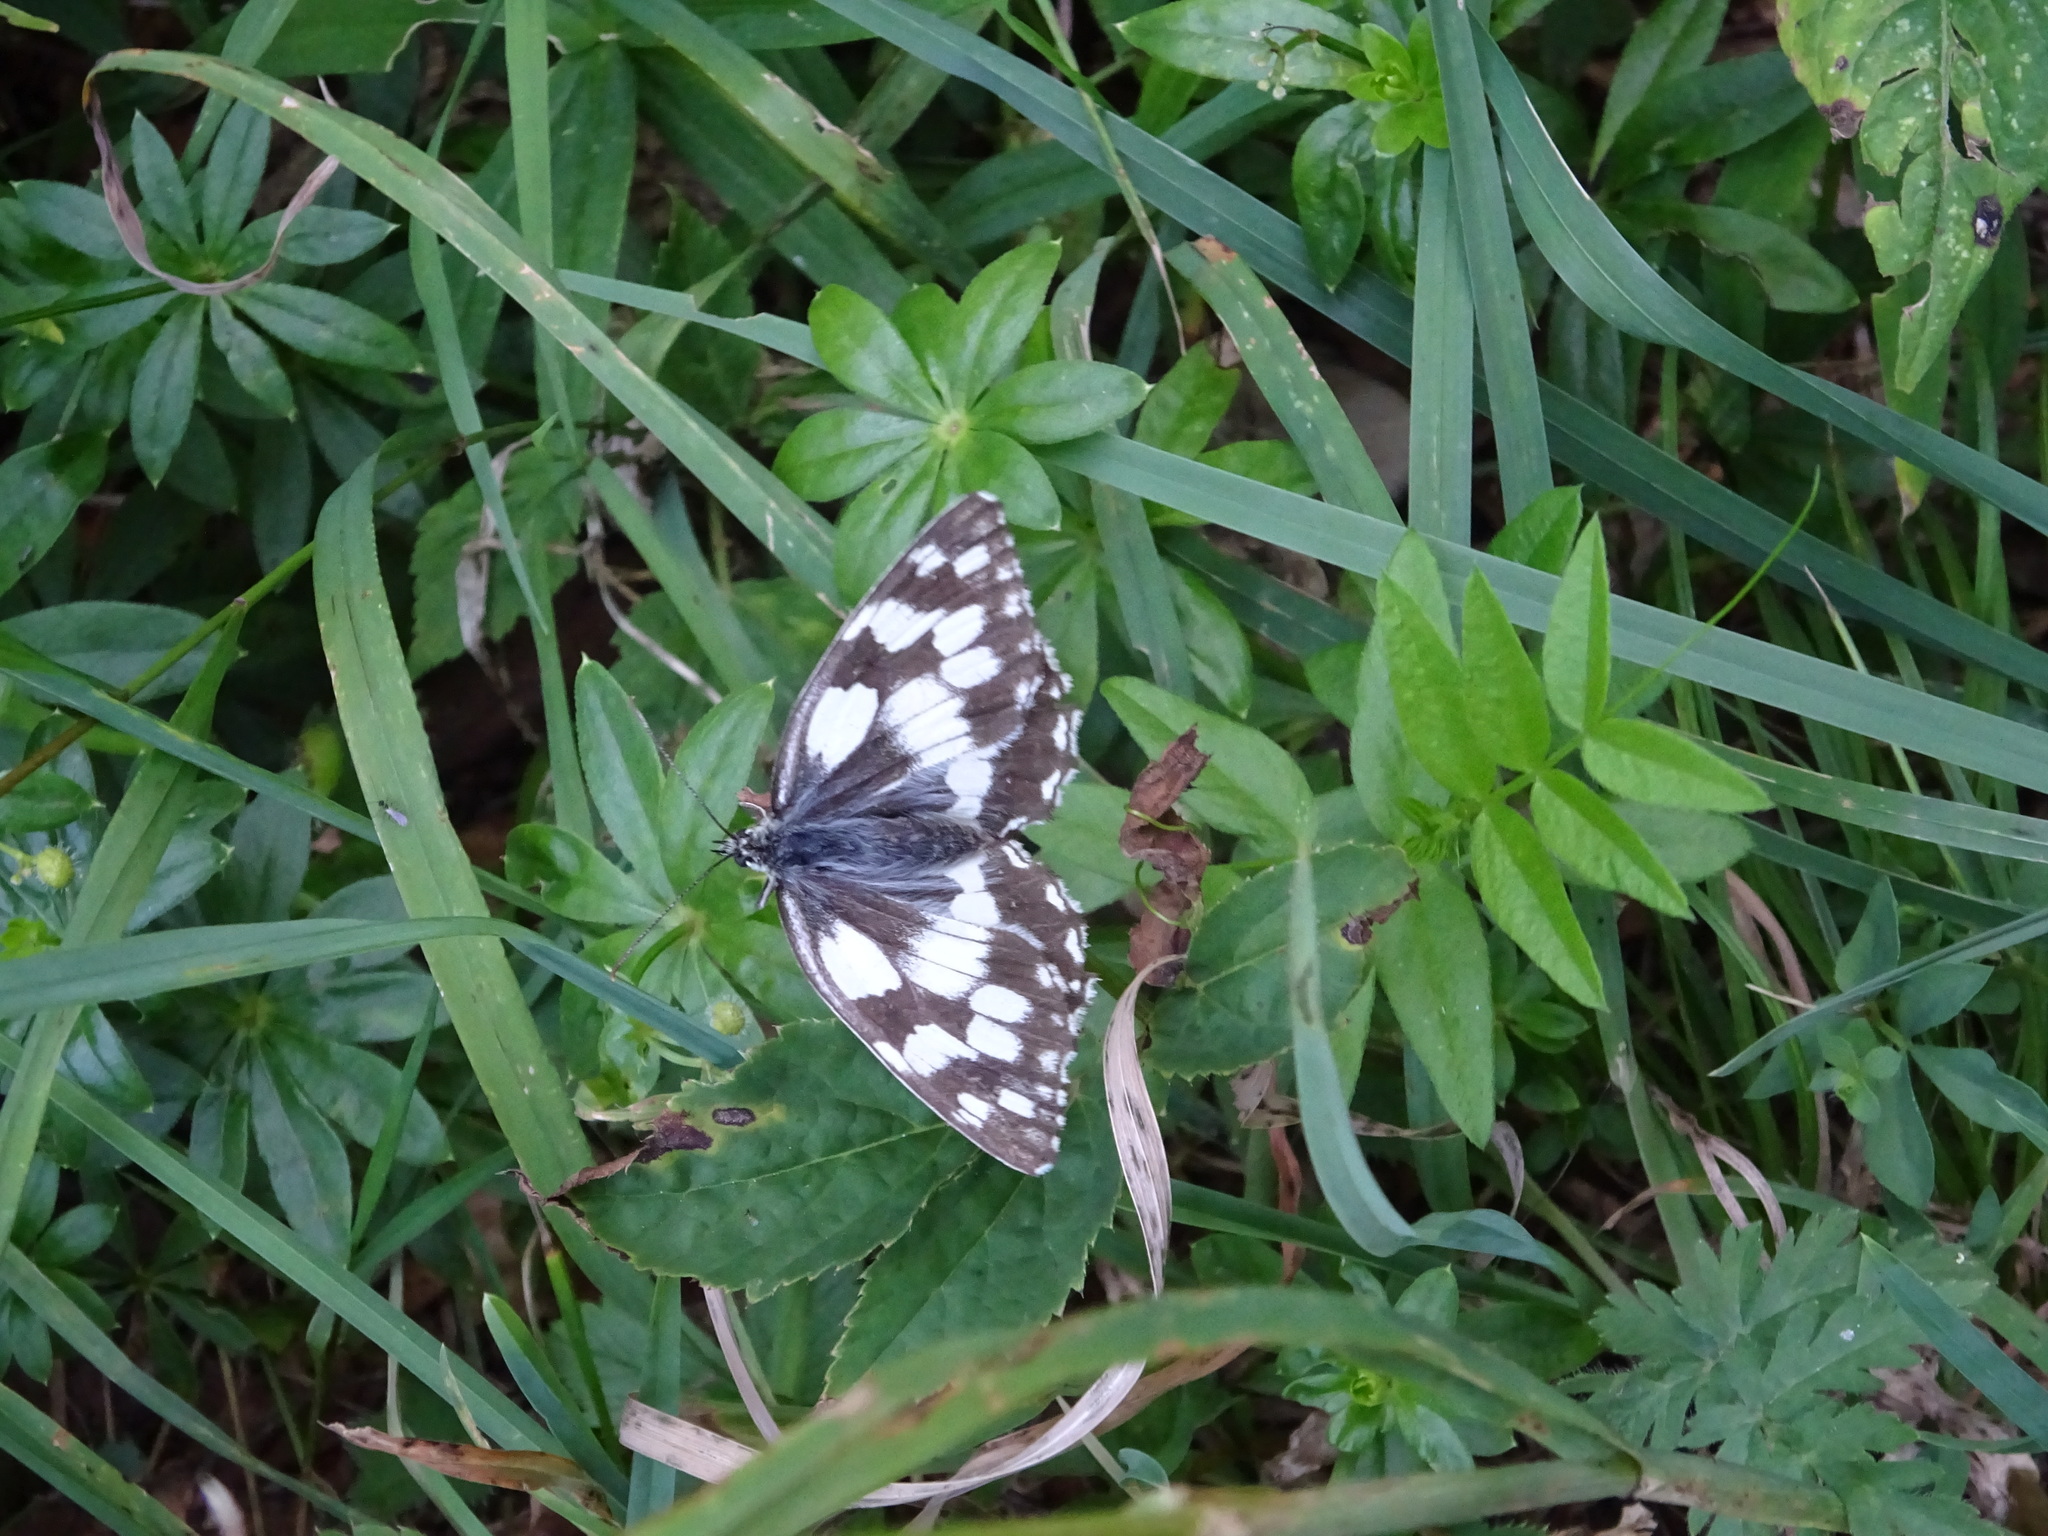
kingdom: Animalia
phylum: Arthropoda
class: Insecta
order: Lepidoptera
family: Nymphalidae
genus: Melanargia
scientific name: Melanargia galathea
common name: Marbled white
